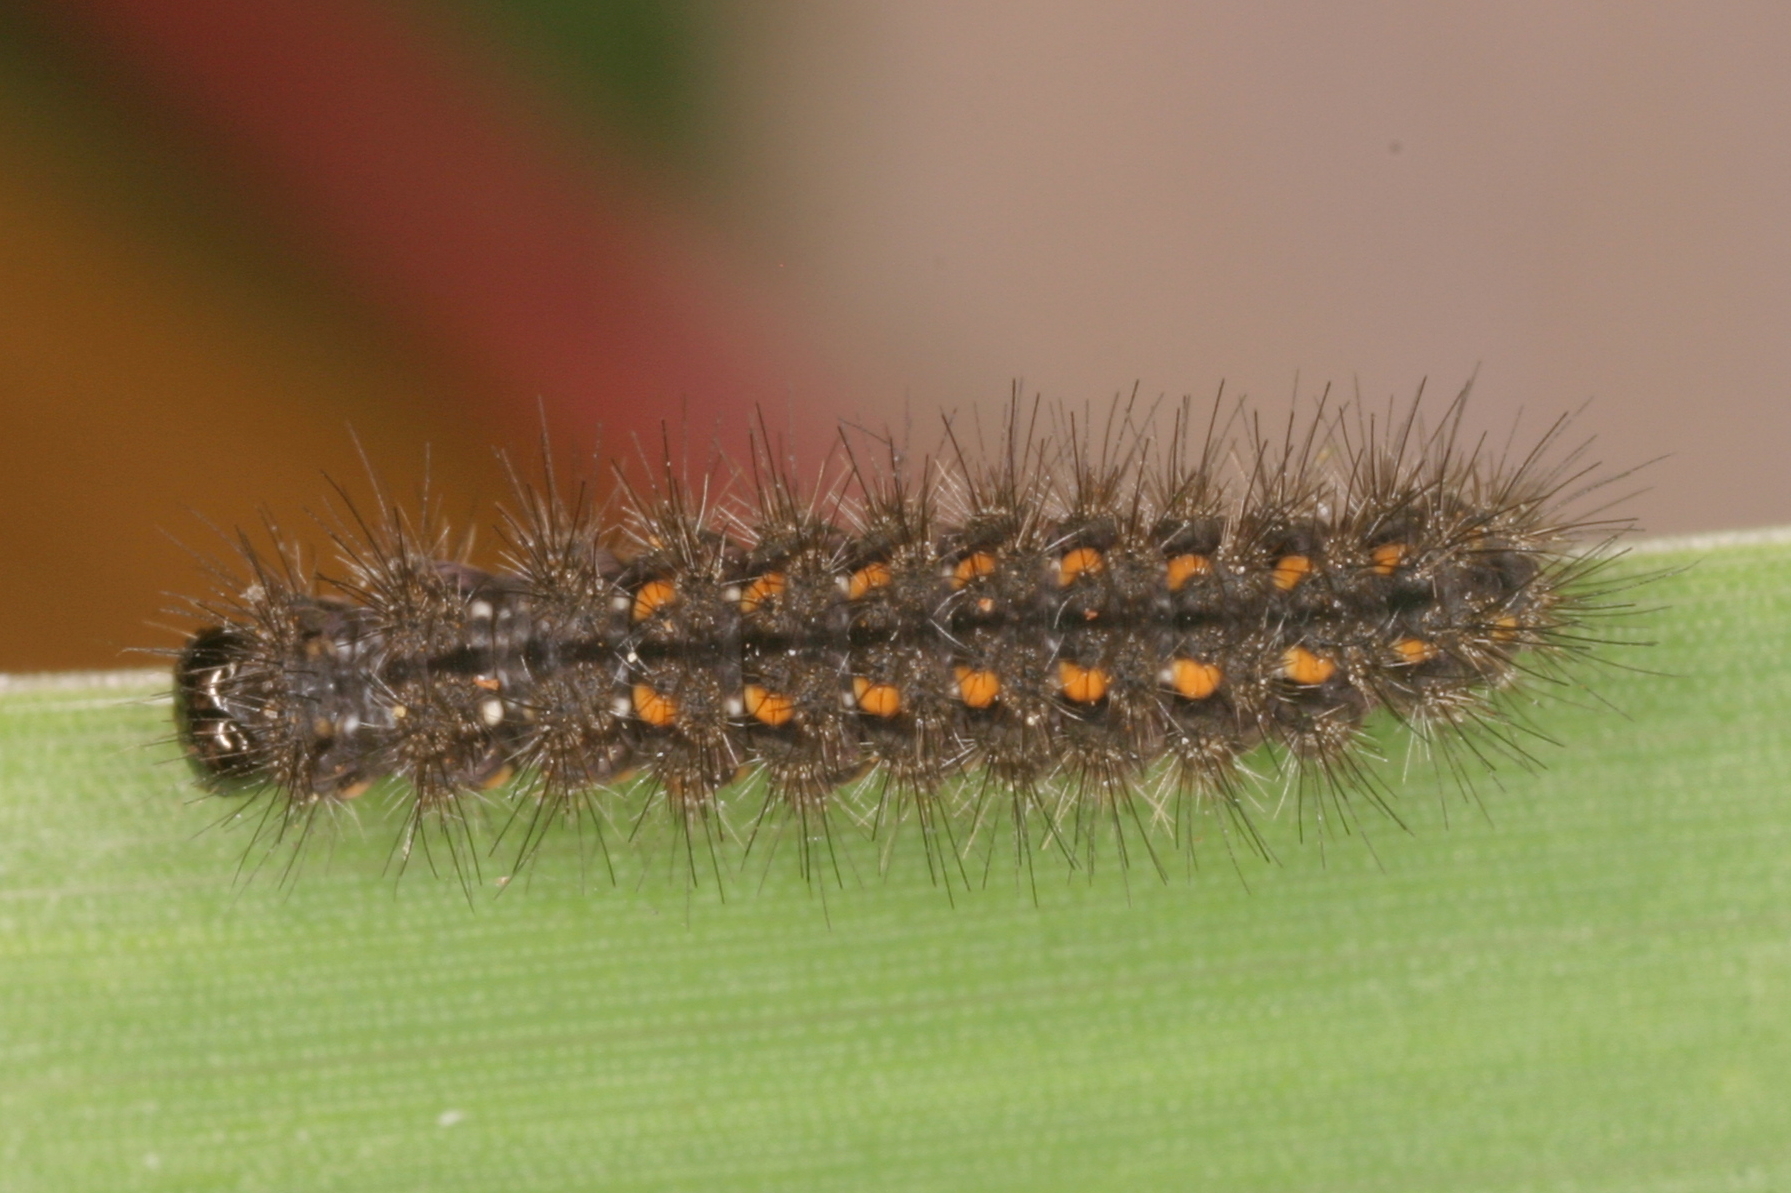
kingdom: Animalia
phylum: Arthropoda
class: Insecta
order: Lepidoptera
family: Erebidae
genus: Manulea
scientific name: Manulea complana
